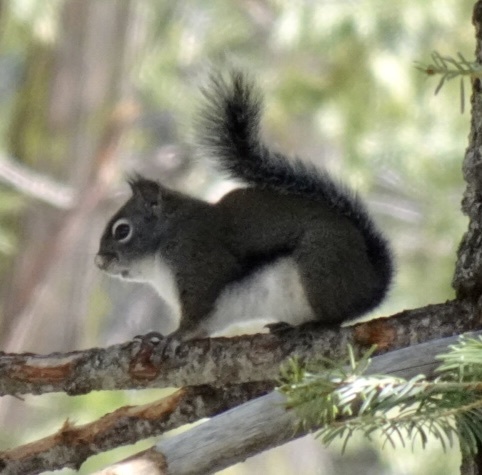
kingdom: Animalia
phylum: Chordata
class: Mammalia
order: Rodentia
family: Sciuridae
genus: Tamiasciurus
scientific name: Tamiasciurus douglasii
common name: Douglas's squirrel
